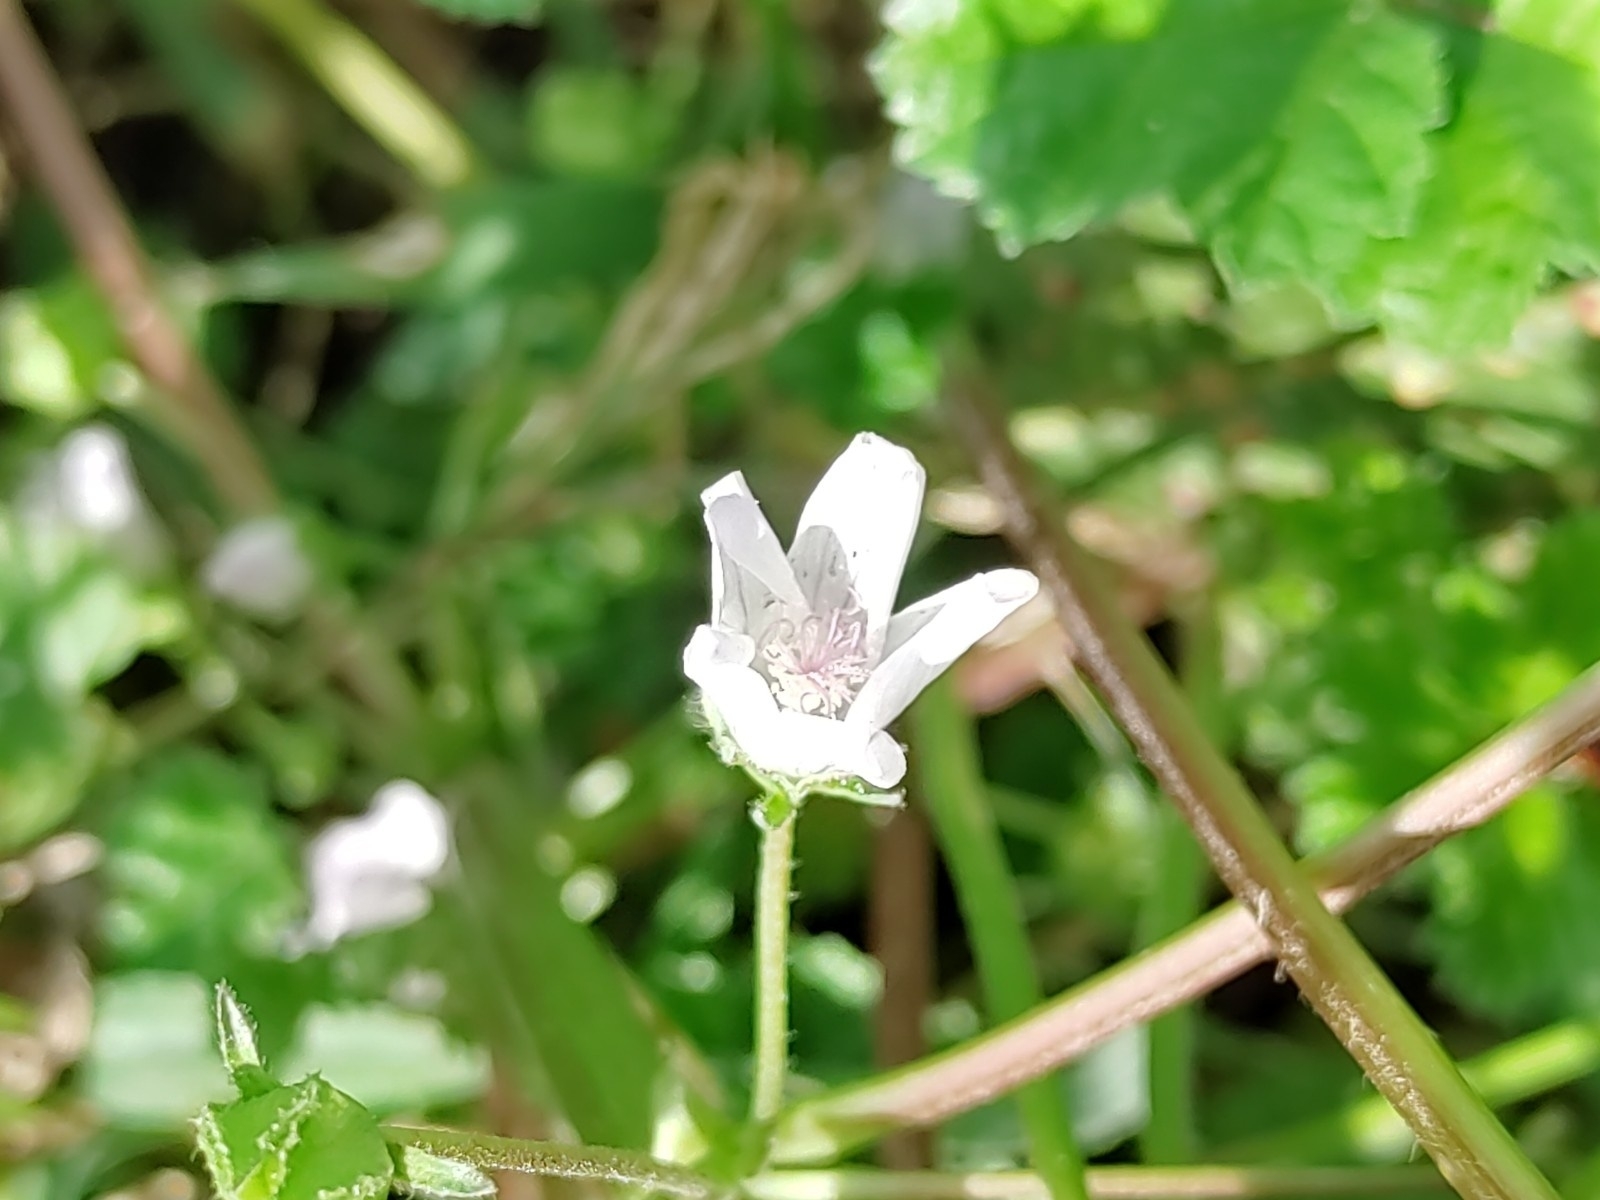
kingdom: Plantae
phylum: Tracheophyta
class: Magnoliopsida
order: Malvales
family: Malvaceae
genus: Malva
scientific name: Malva neglecta
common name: Common mallow
